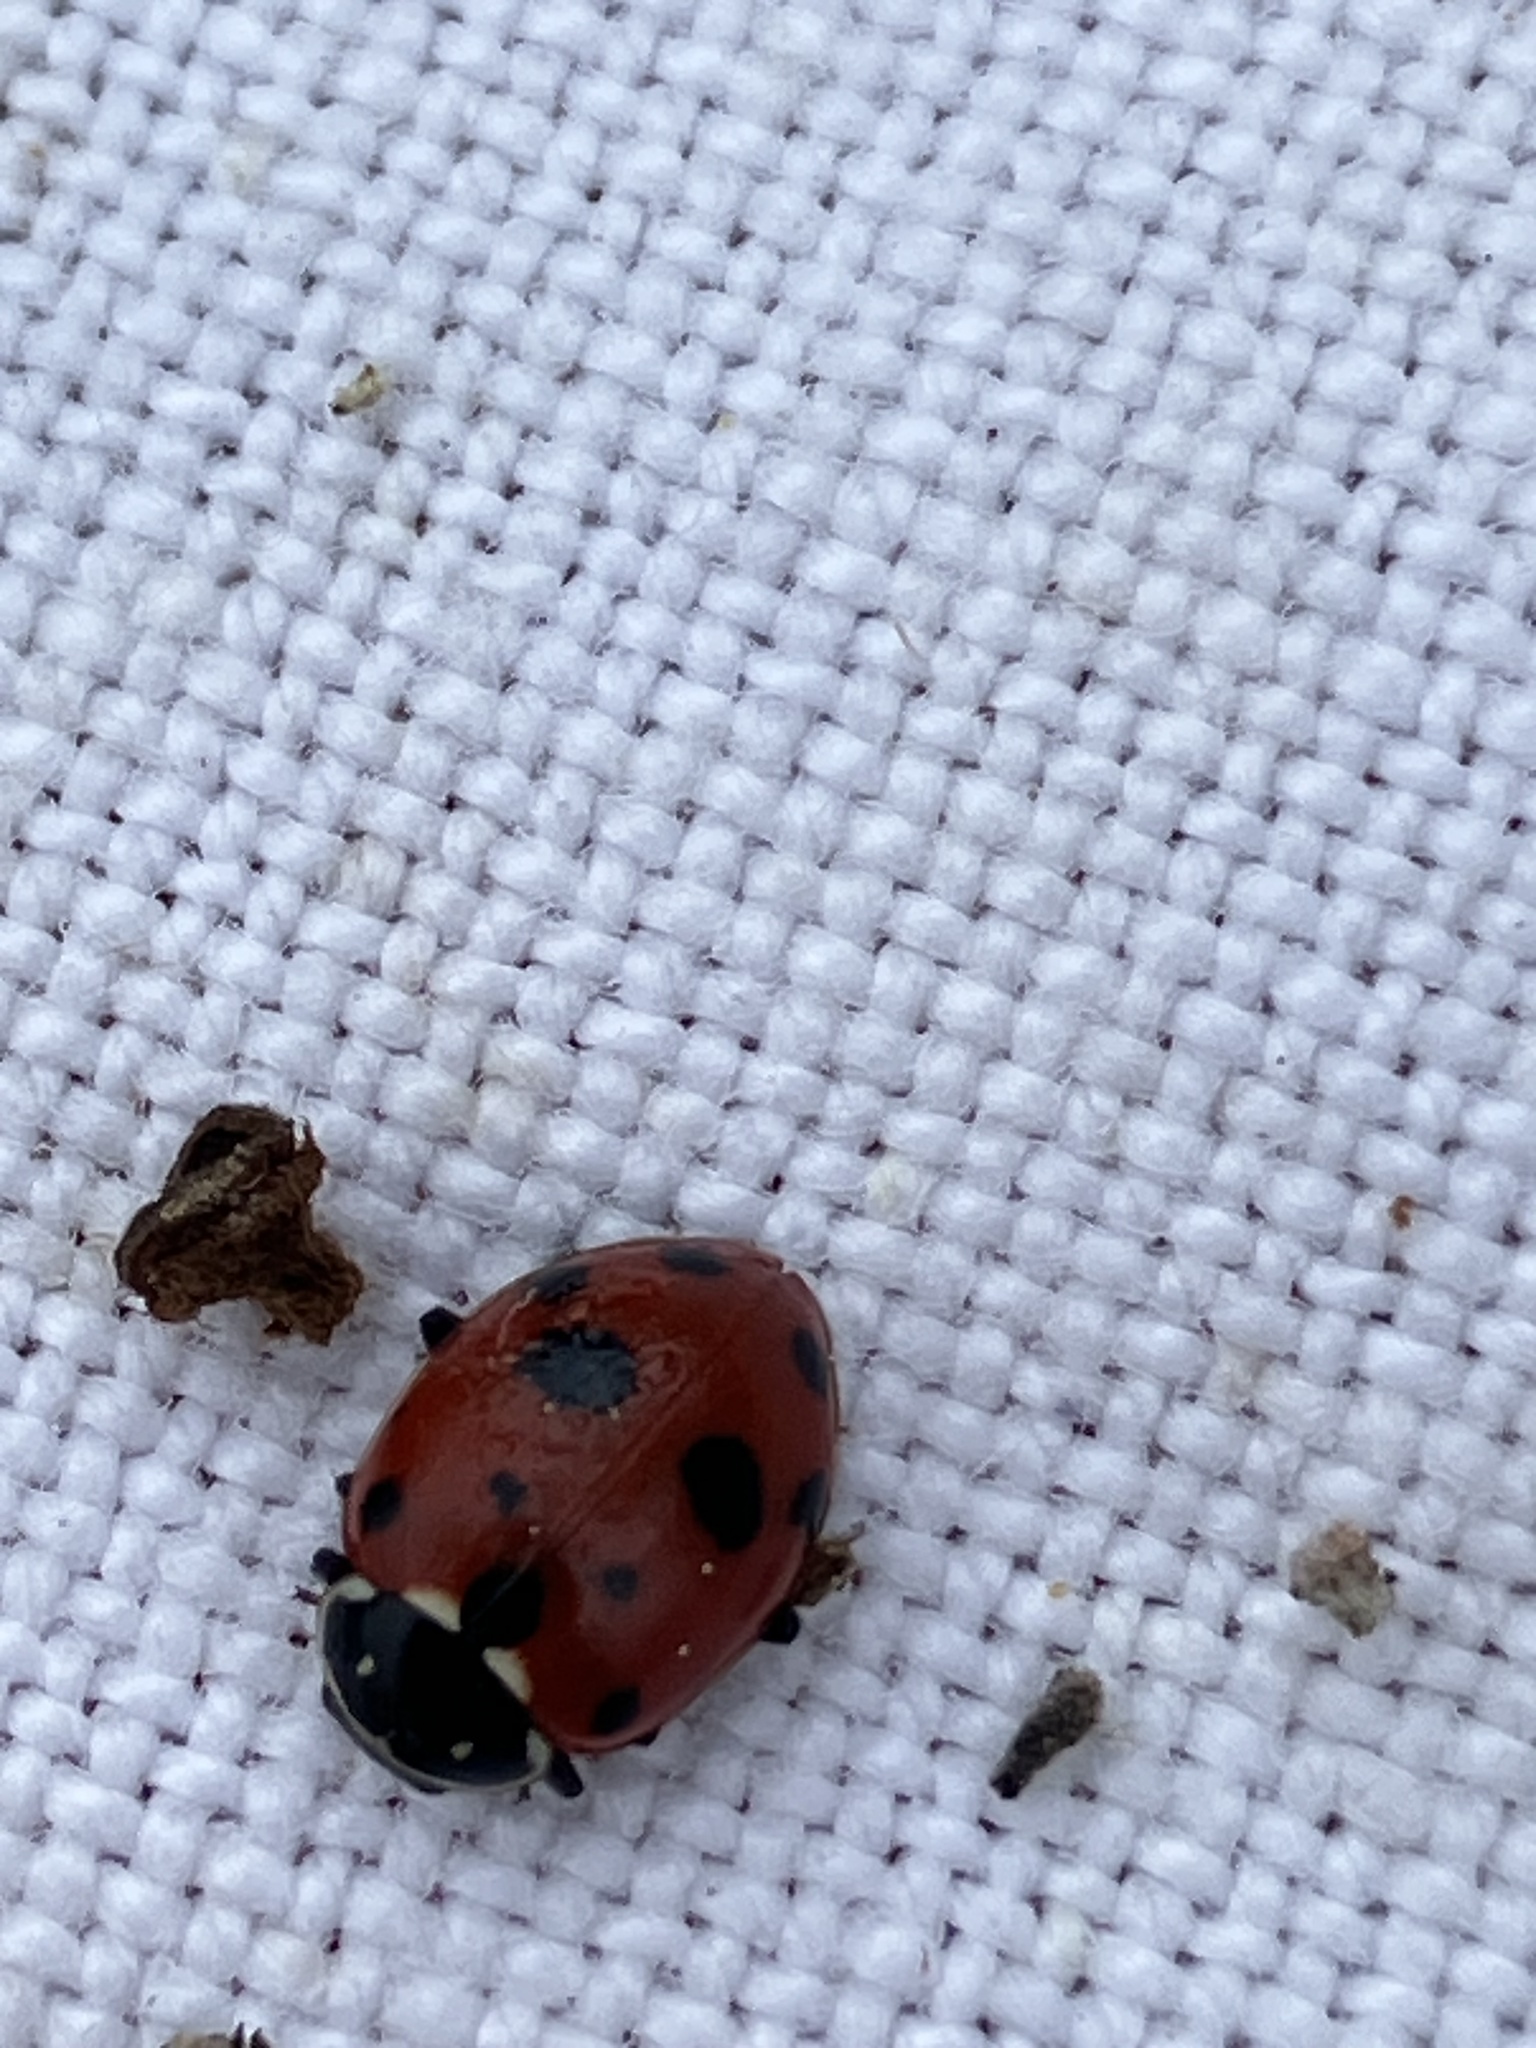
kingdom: Animalia
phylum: Arthropoda
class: Insecta
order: Coleoptera
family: Coccinellidae
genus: Hippodamia
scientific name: Hippodamia variegata
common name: Ladybird beetle
